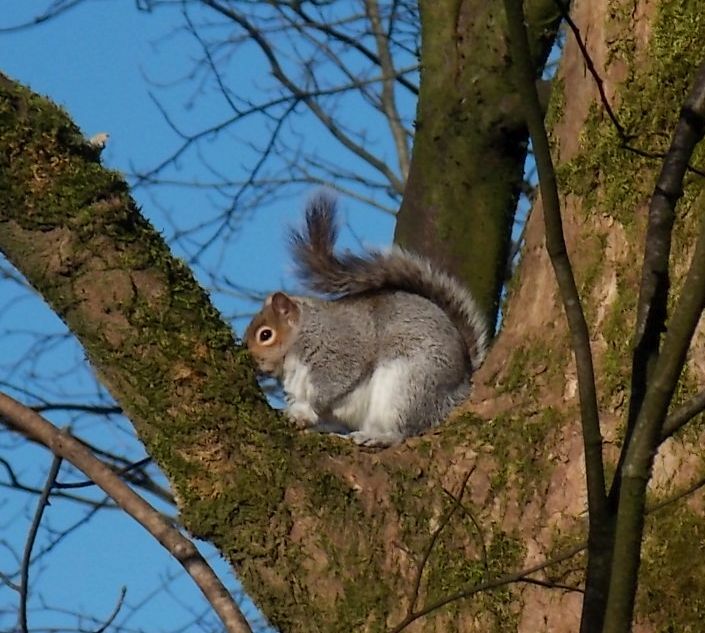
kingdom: Animalia
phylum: Chordata
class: Mammalia
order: Rodentia
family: Sciuridae
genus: Sciurus
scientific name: Sciurus carolinensis
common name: Eastern gray squirrel
